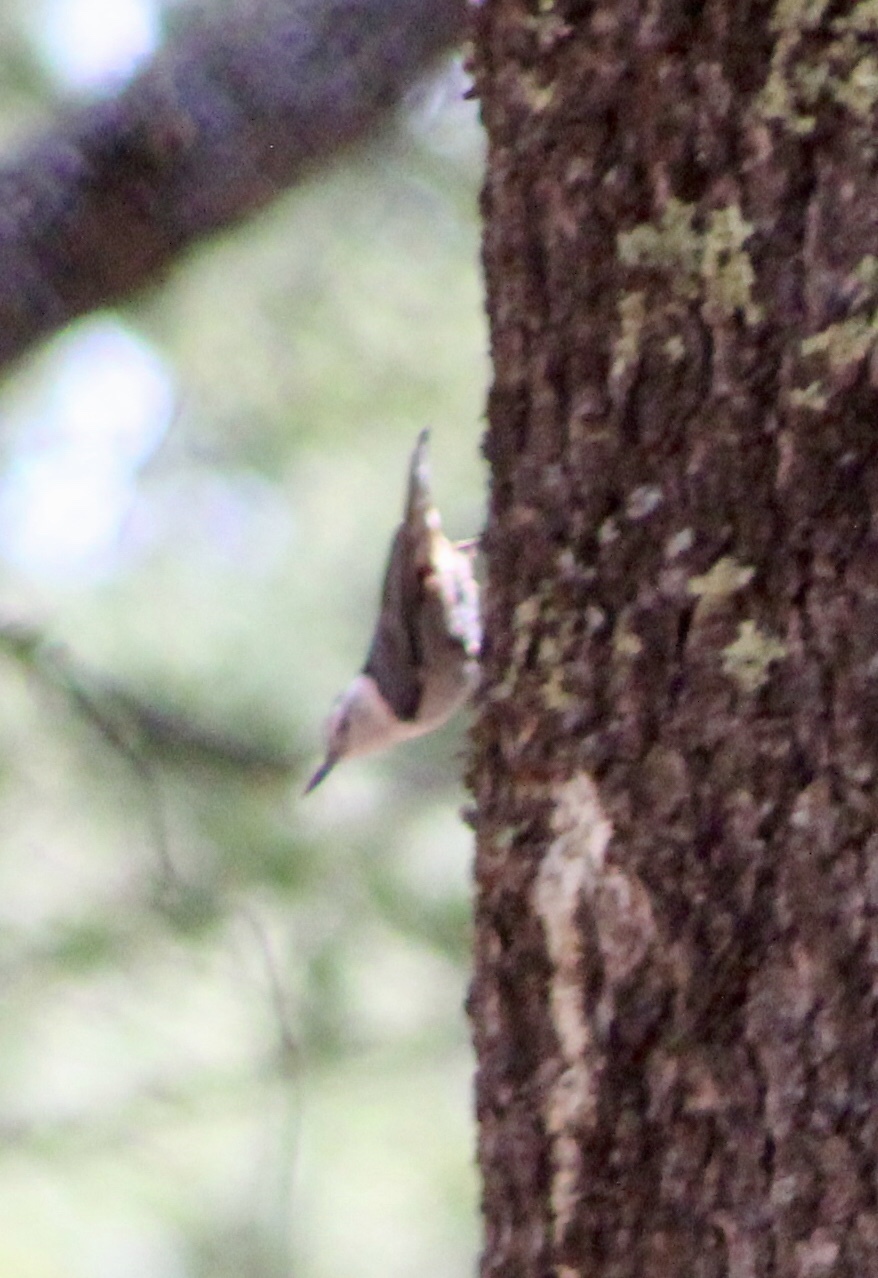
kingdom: Animalia
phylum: Chordata
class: Aves
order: Passeriformes
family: Sittidae
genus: Sitta
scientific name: Sitta carolinensis
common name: White-breasted nuthatch
